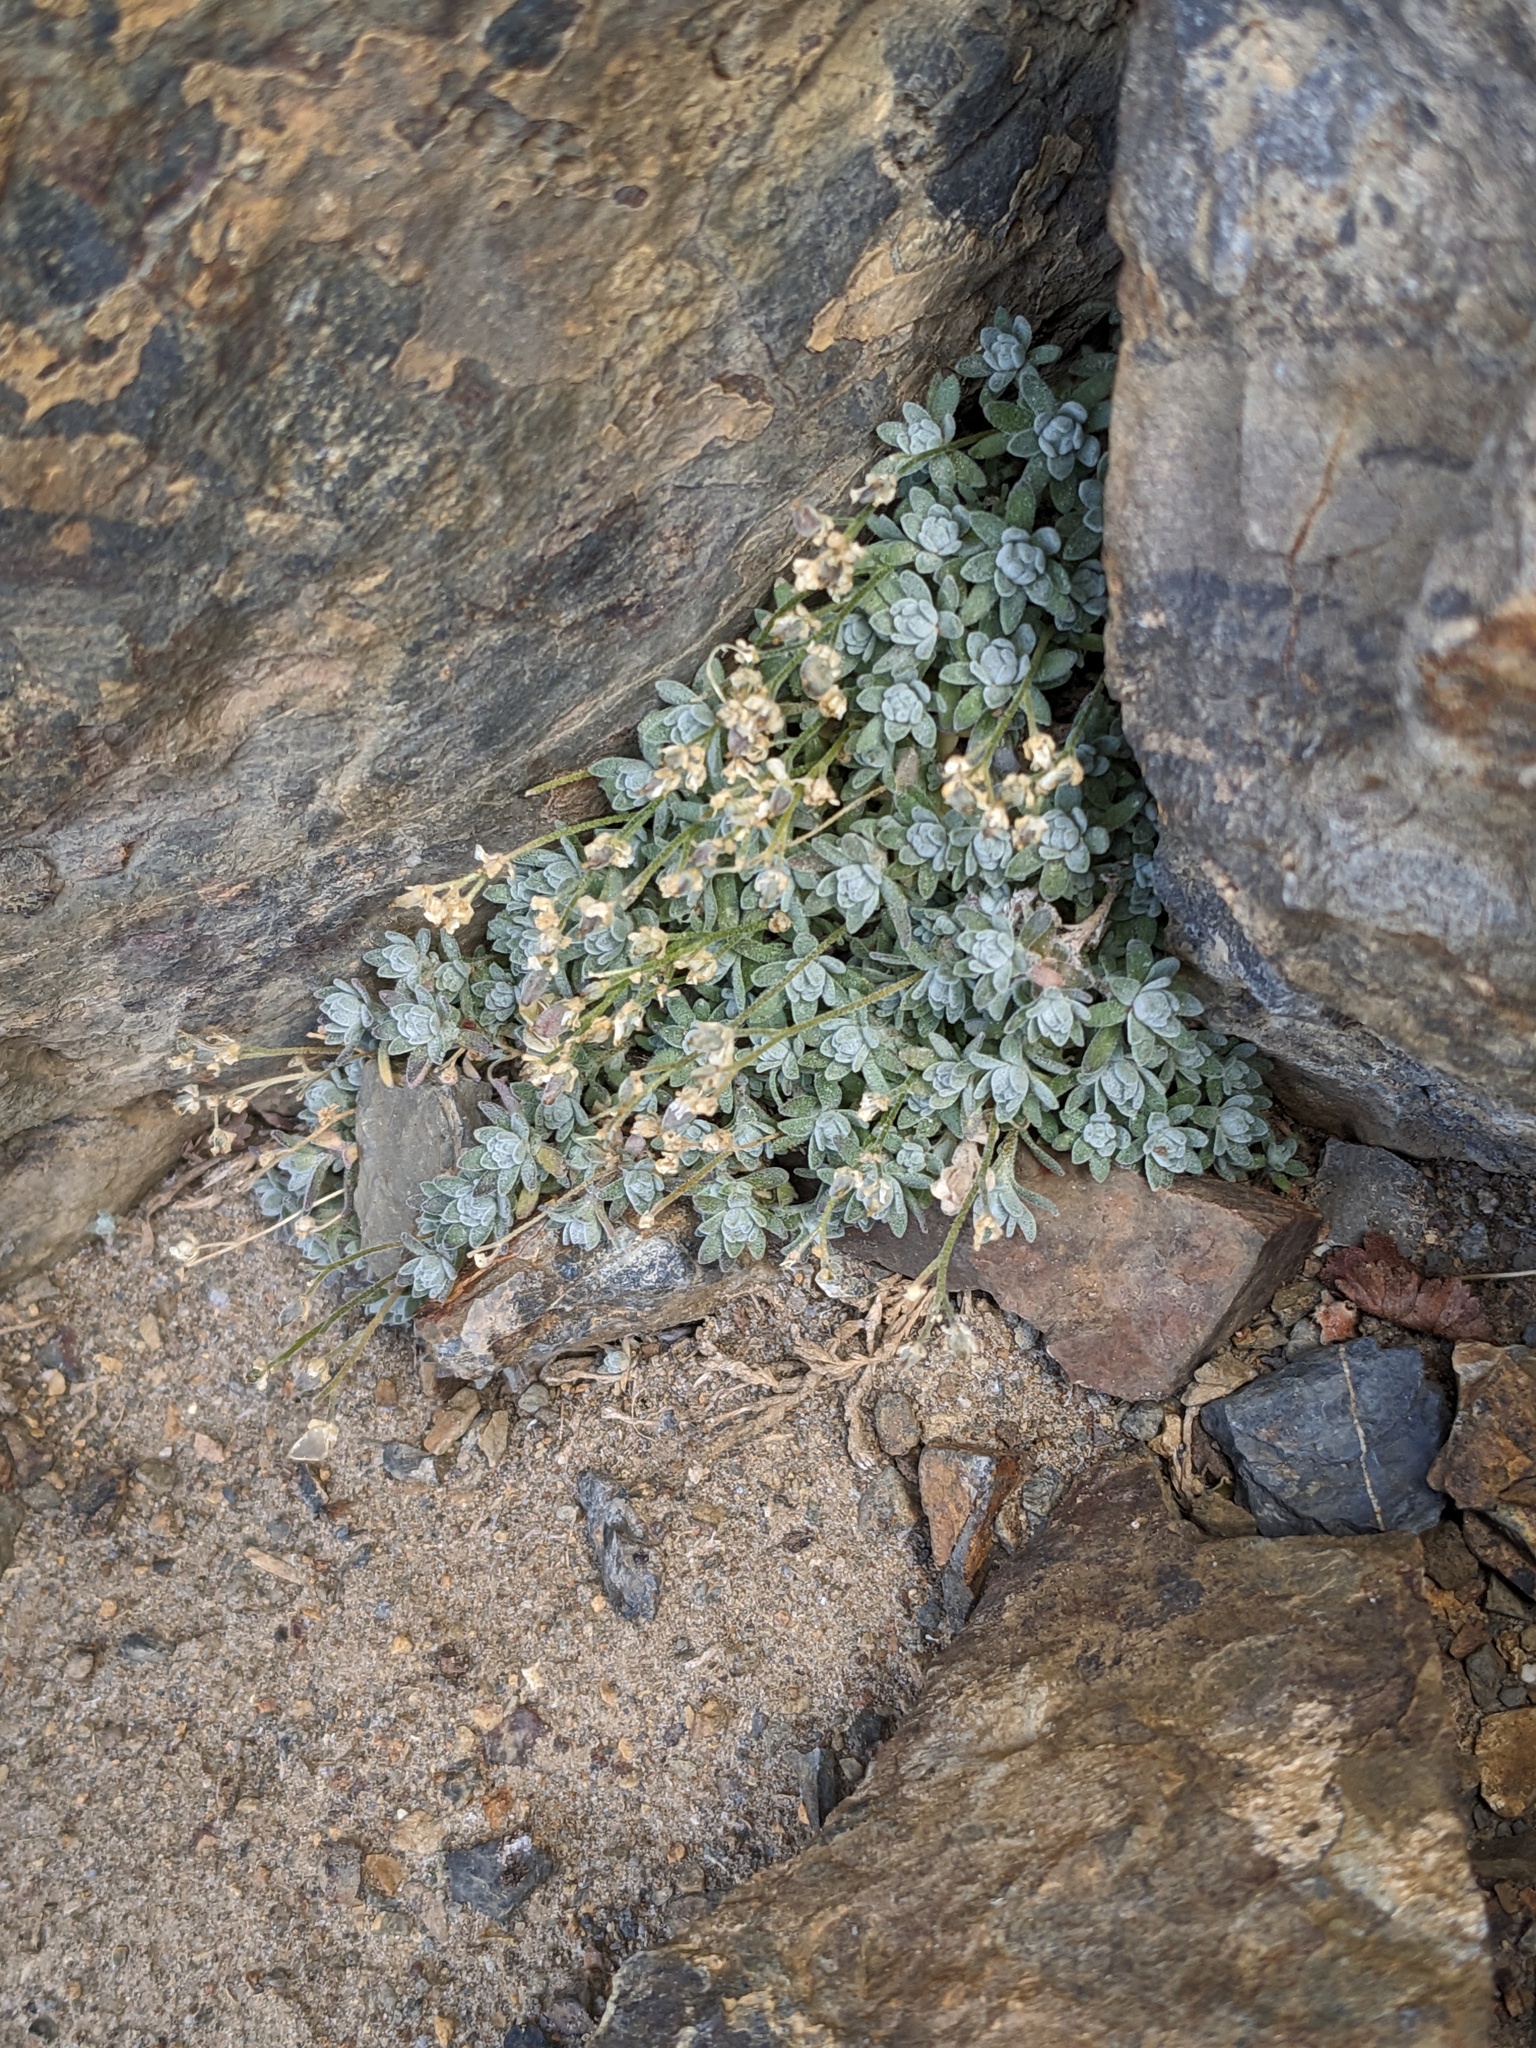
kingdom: Plantae
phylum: Tracheophyta
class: Magnoliopsida
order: Brassicales
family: Brassicaceae
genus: Draba
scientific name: Draba sierrae
